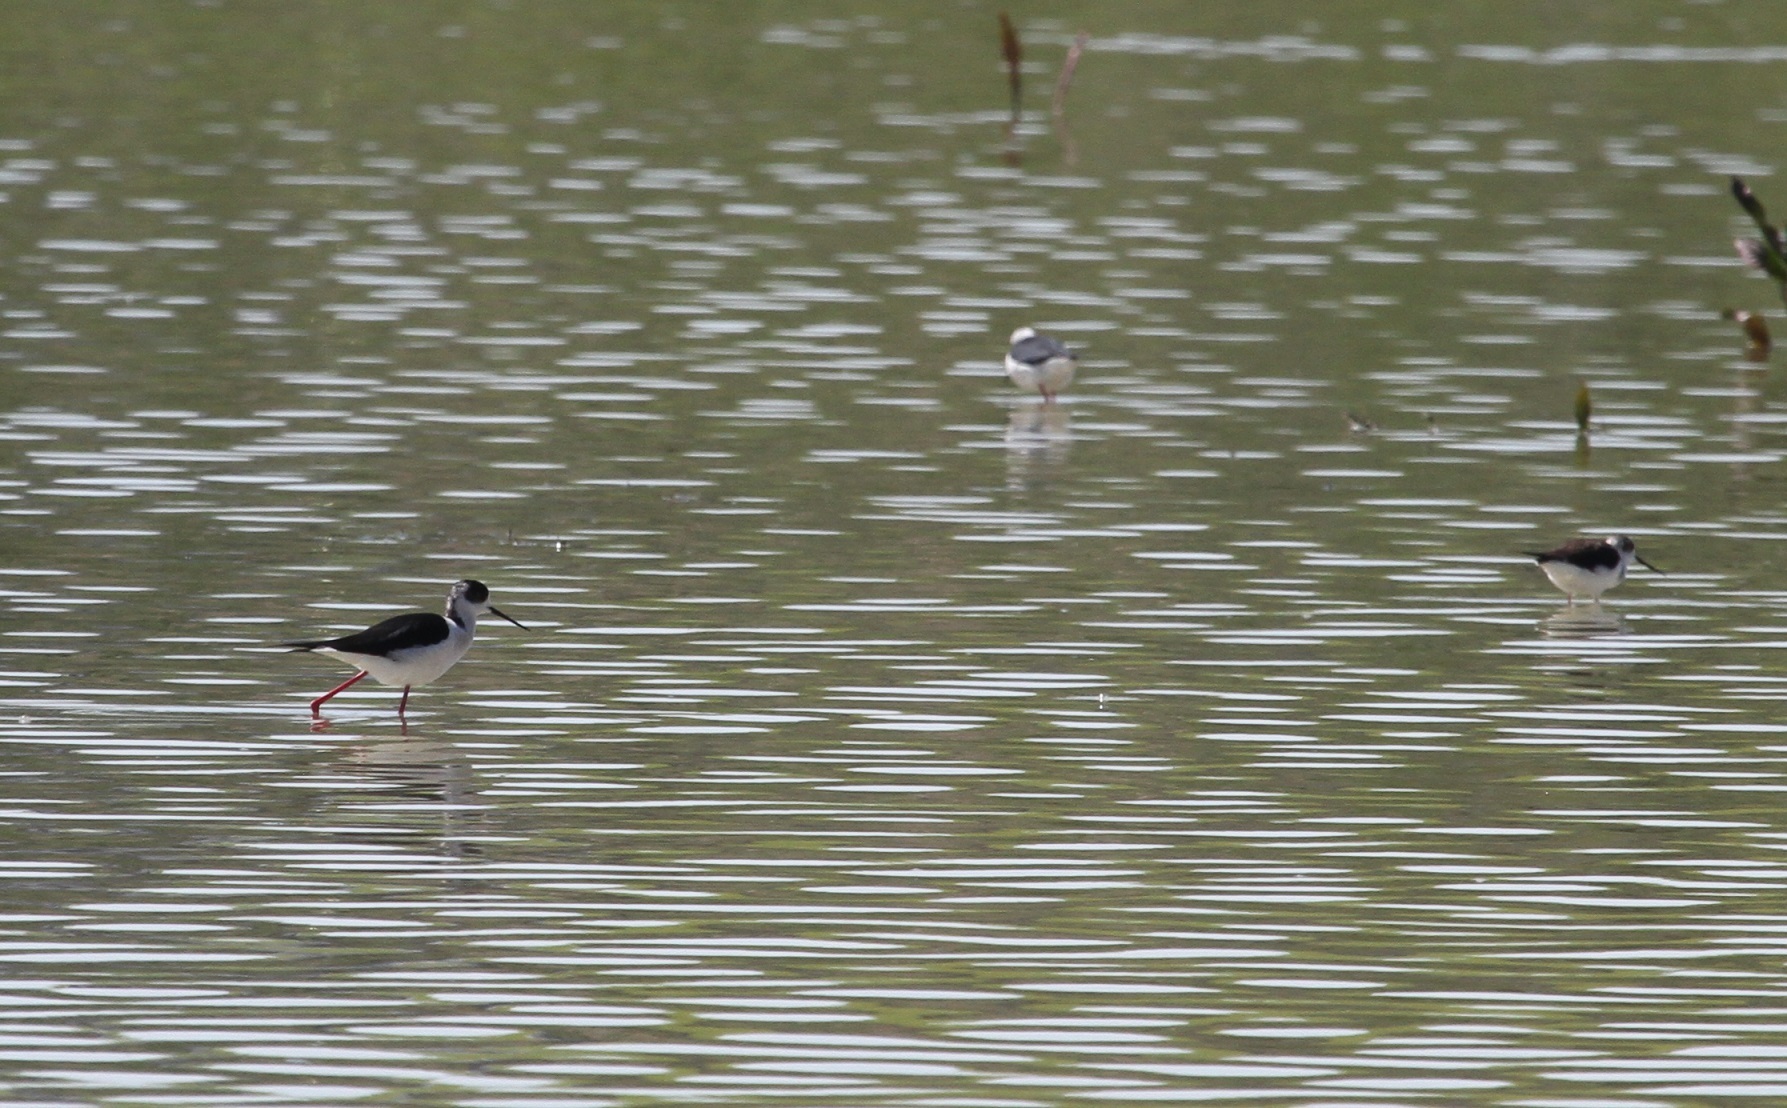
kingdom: Animalia
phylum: Chordata
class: Aves
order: Charadriiformes
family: Recurvirostridae
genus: Himantopus
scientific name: Himantopus himantopus
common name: Black-winged stilt
